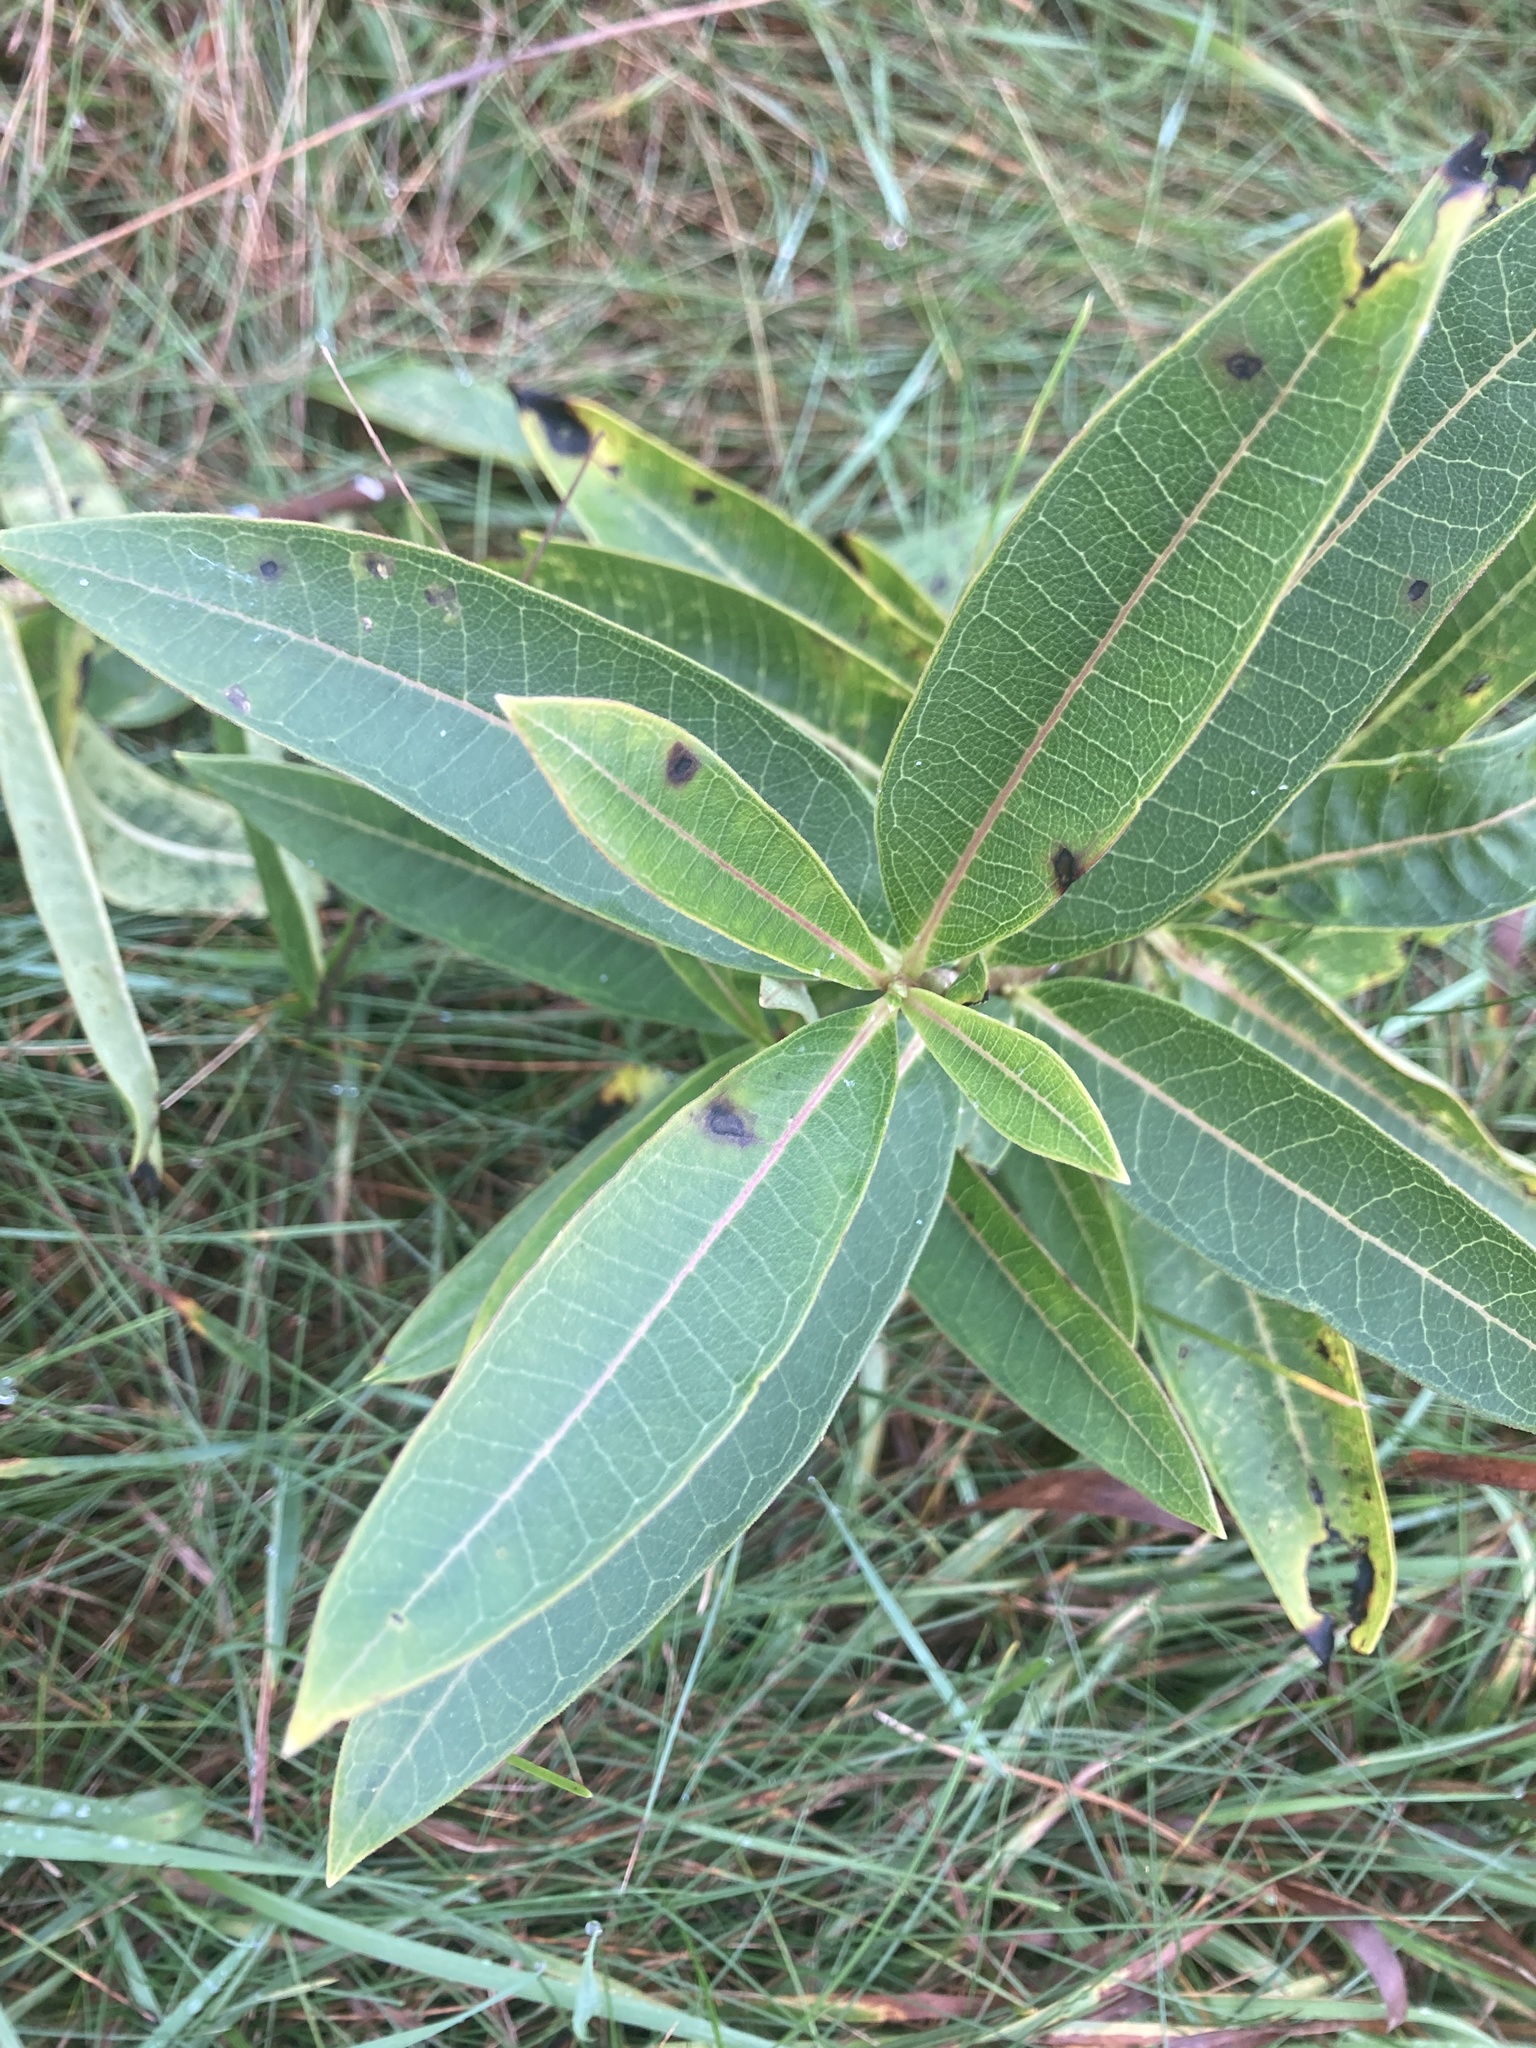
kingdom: Plantae
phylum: Tracheophyta
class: Magnoliopsida
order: Gentianales
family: Apocynaceae
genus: Asclepias
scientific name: Asclepias syriaca
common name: Common milkweed
